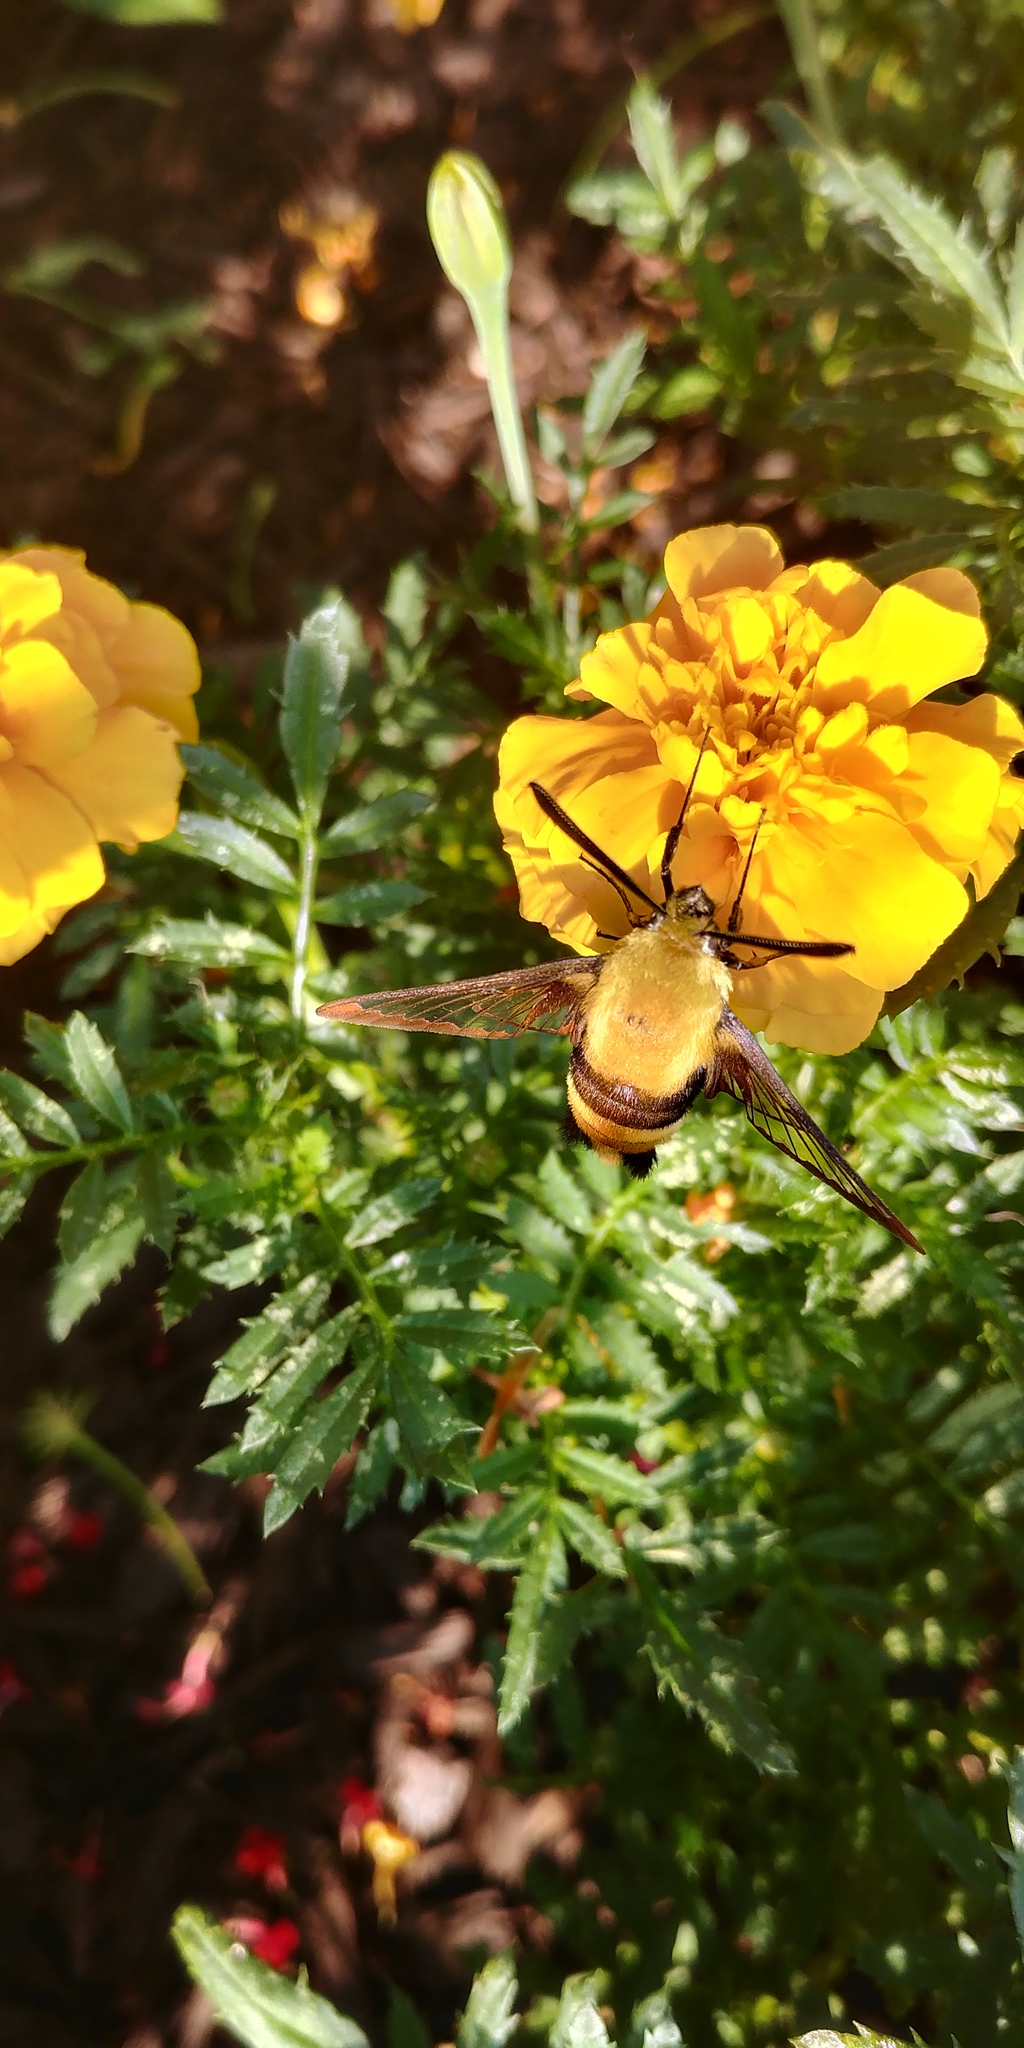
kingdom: Animalia
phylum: Arthropoda
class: Insecta
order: Lepidoptera
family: Sphingidae
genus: Hemaris
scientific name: Hemaris diffinis
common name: Bumblebee moth
